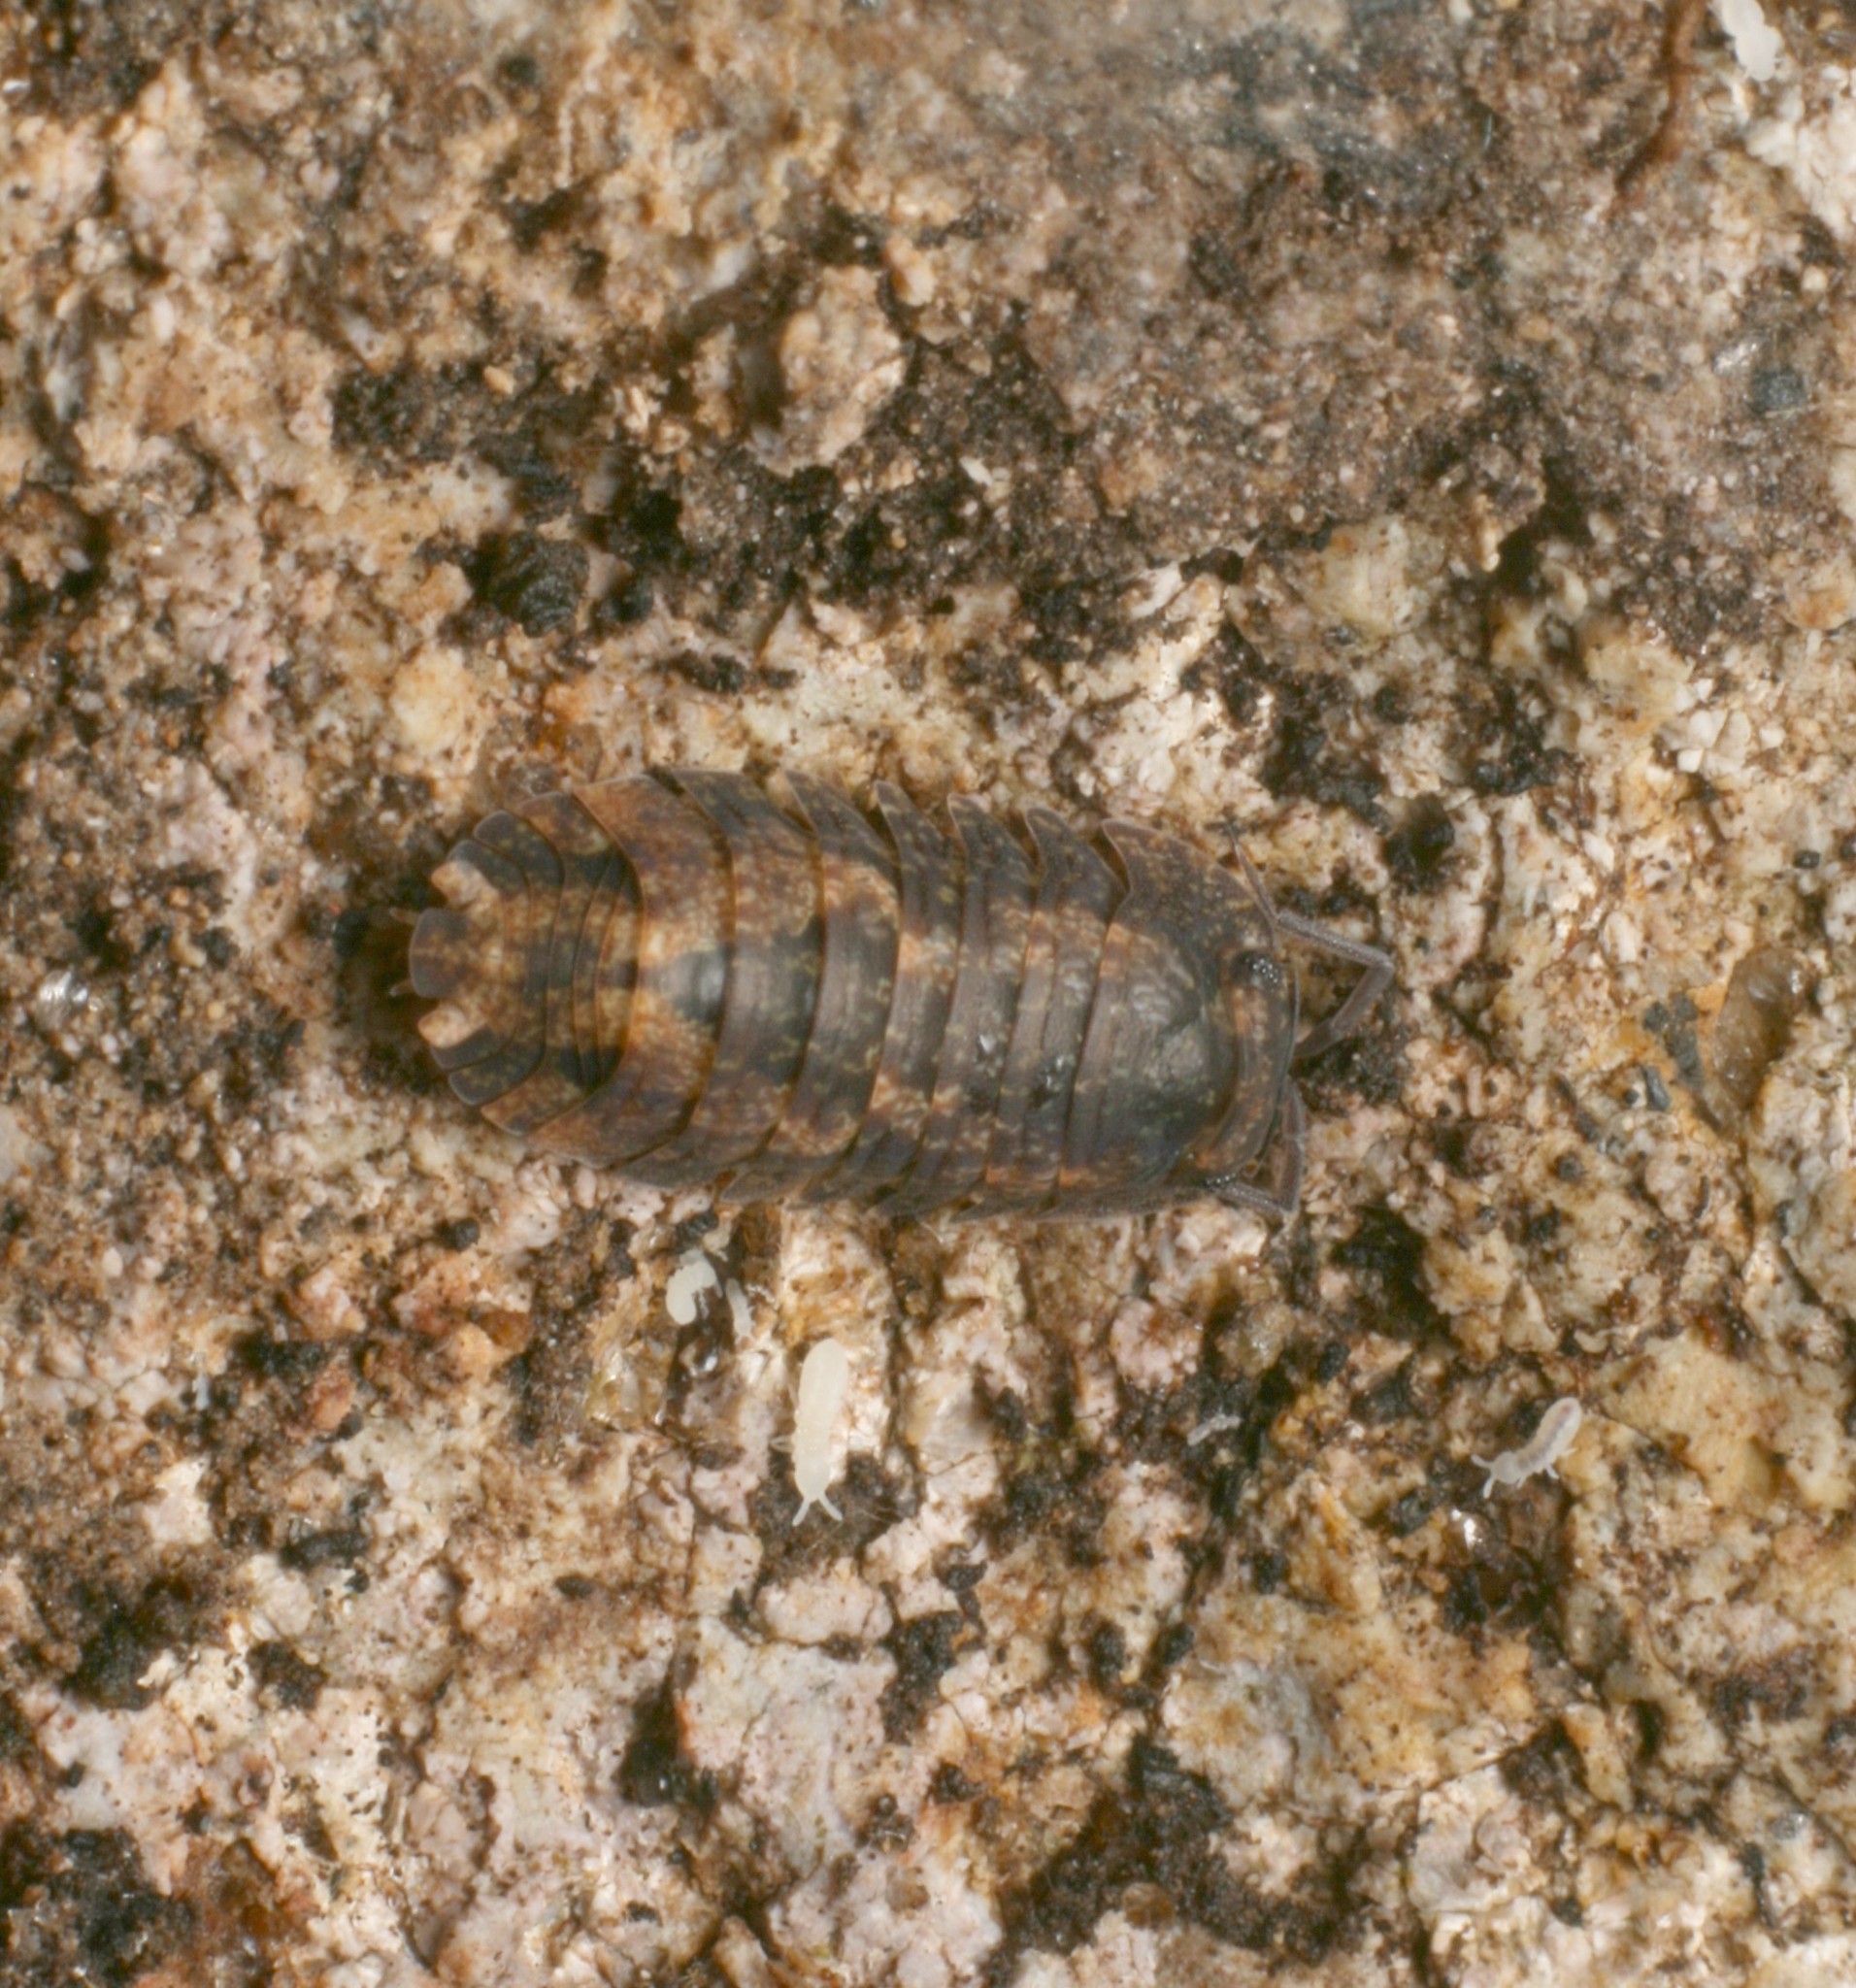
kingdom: Animalia
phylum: Arthropoda
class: Malacostraca
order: Isopoda
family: Armadillidae
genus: Cubaris
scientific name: Cubaris tarangensis
